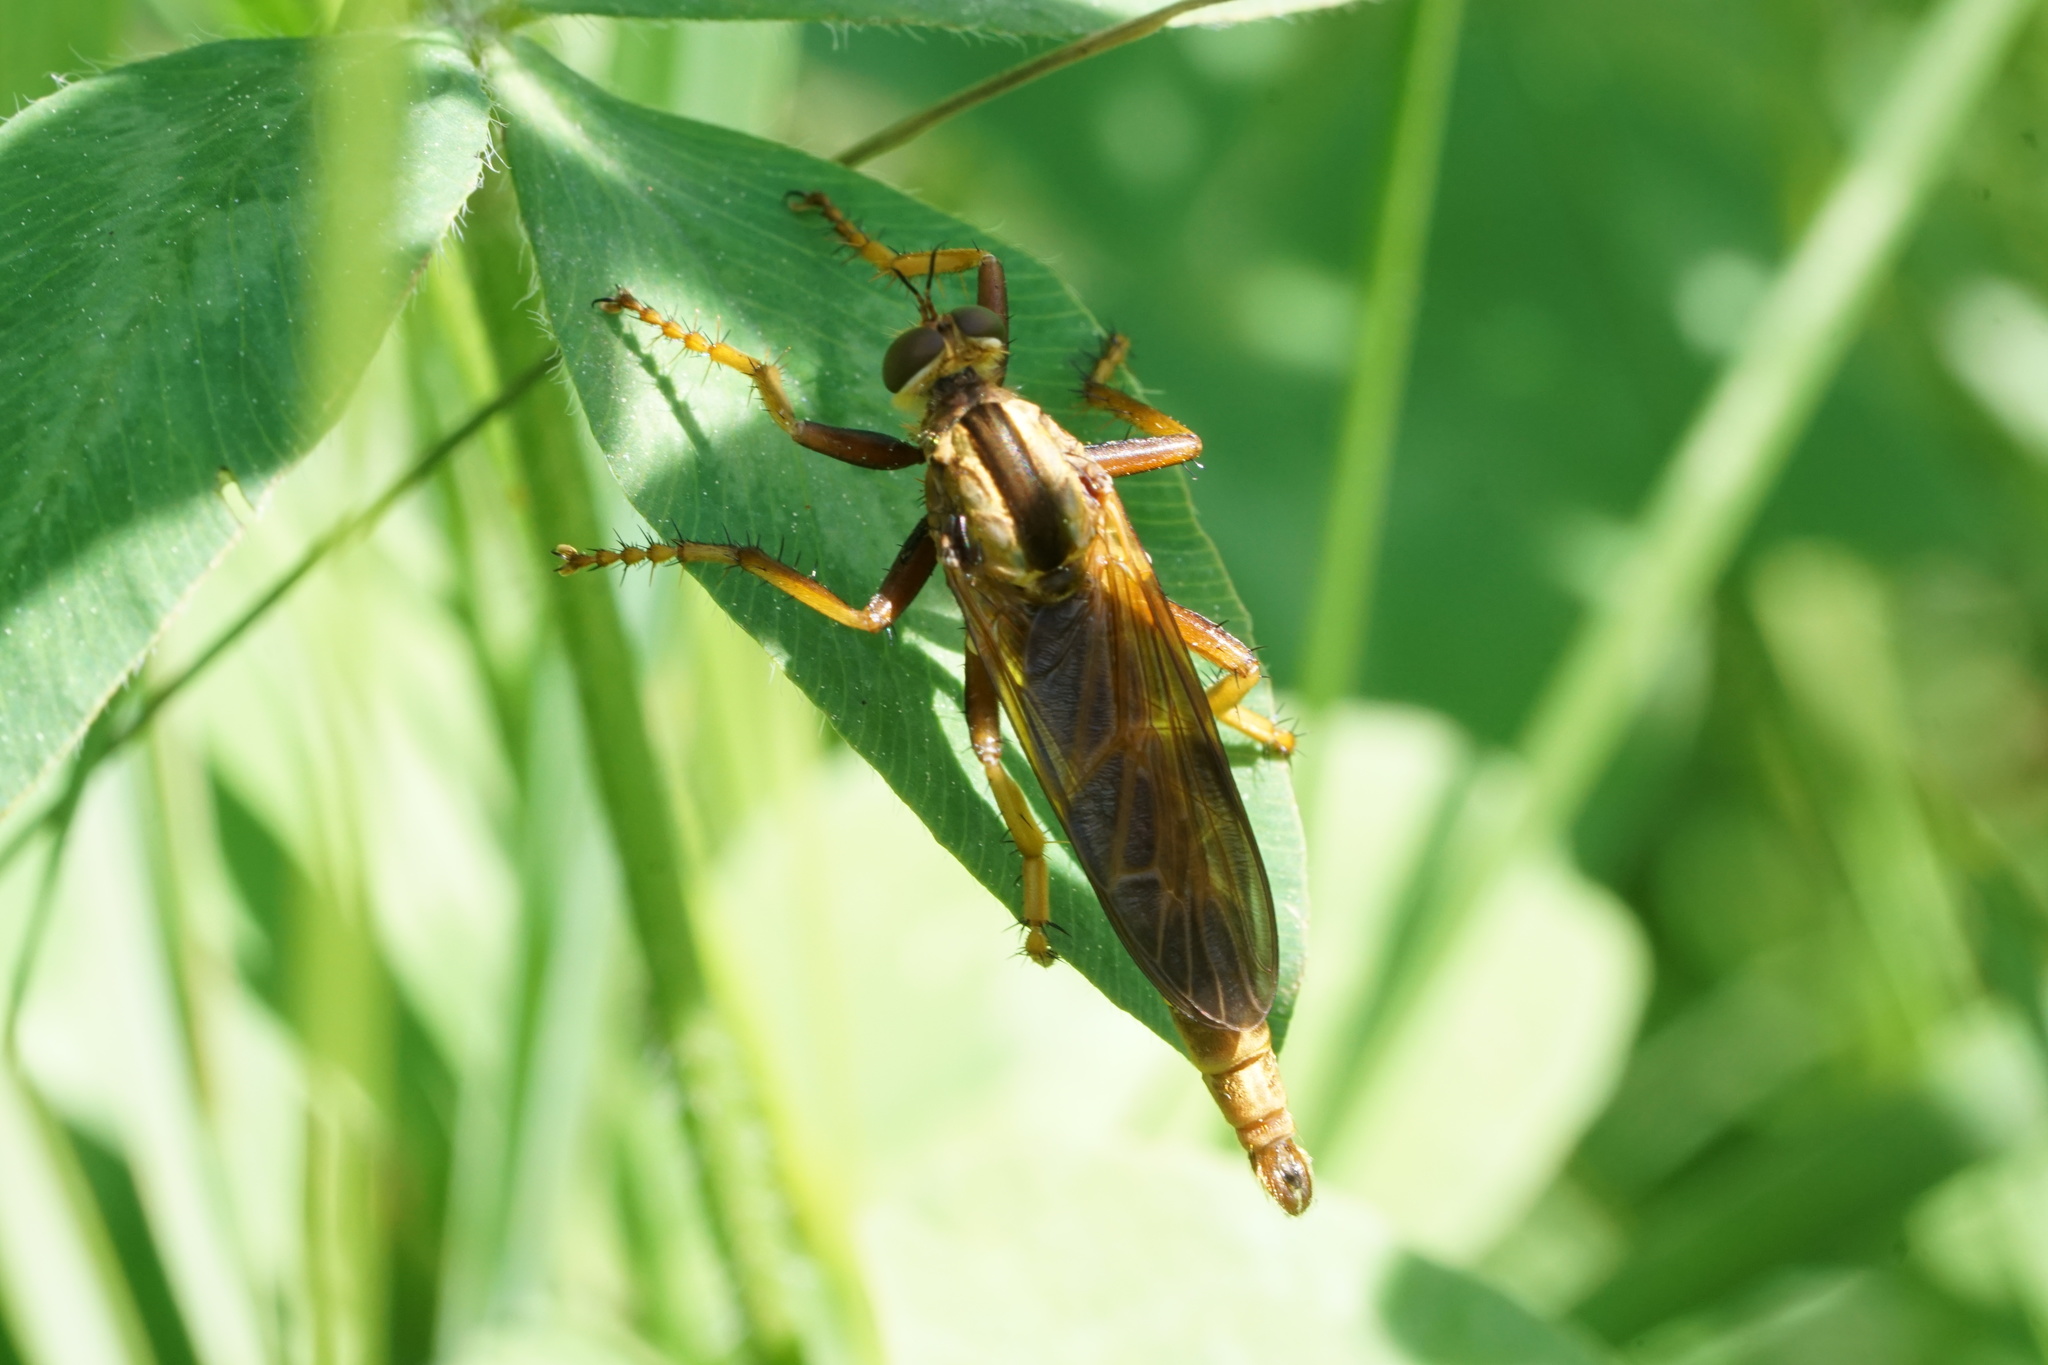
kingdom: Animalia
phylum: Arthropoda
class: Insecta
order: Diptera
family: Asilidae
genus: Asilus
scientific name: Asilus sericeus
